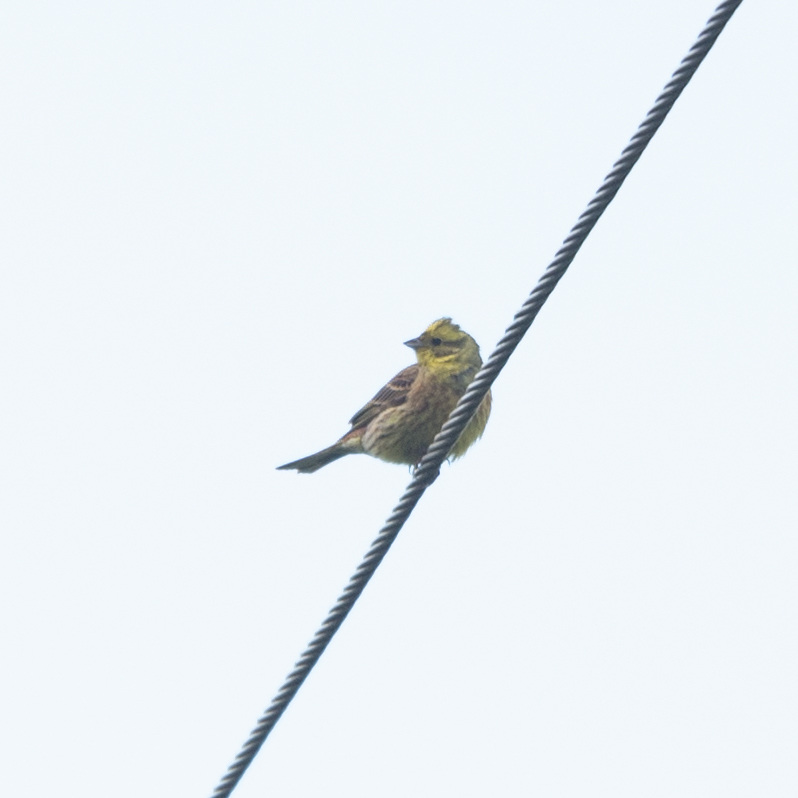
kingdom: Animalia
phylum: Chordata
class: Aves
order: Passeriformes
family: Emberizidae
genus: Emberiza
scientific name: Emberiza citrinella
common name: Yellowhammer
